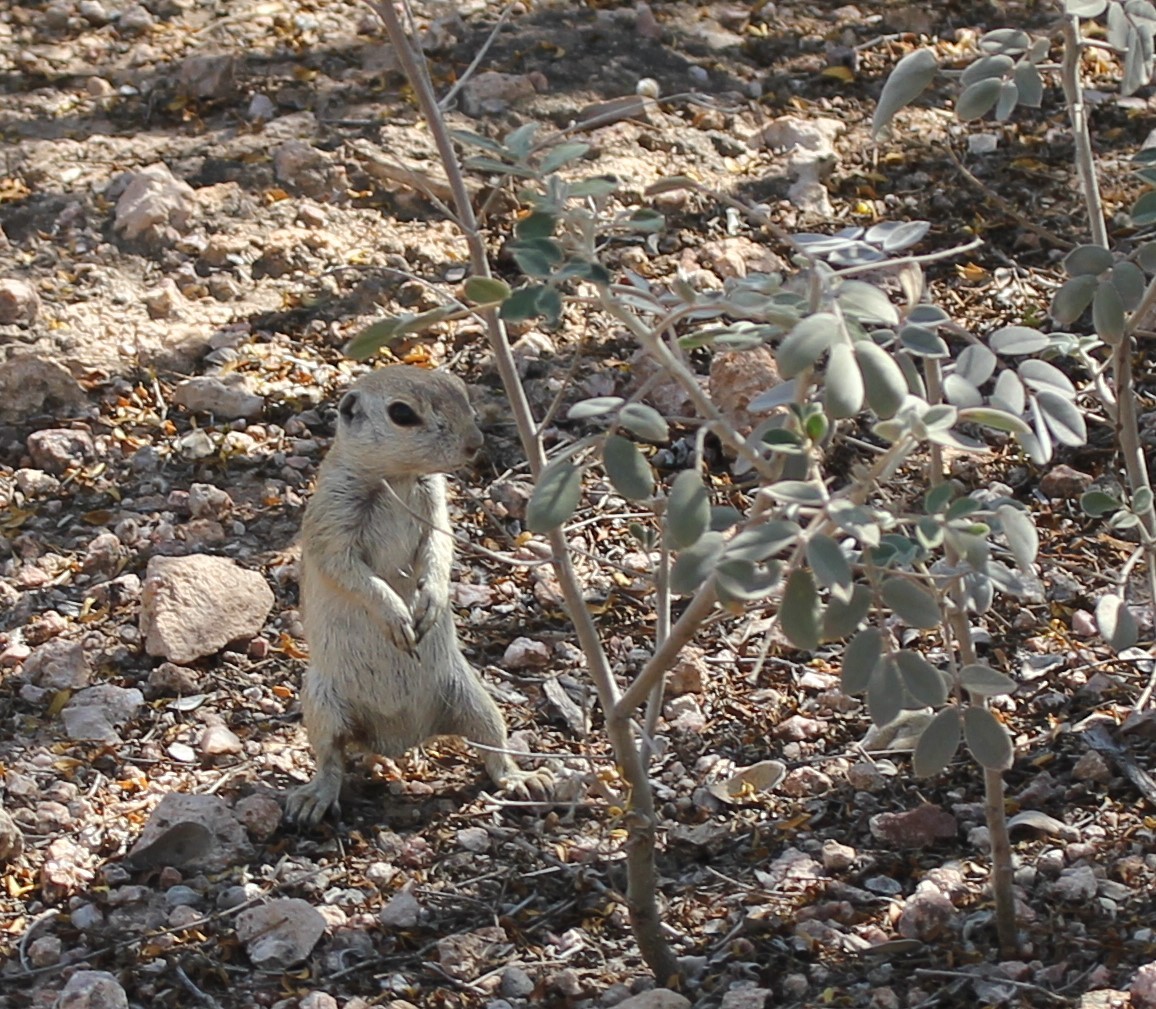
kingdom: Animalia
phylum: Chordata
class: Mammalia
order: Rodentia
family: Sciuridae
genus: Xerospermophilus
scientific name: Xerospermophilus tereticaudus
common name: Round-tailed ground squirrel
